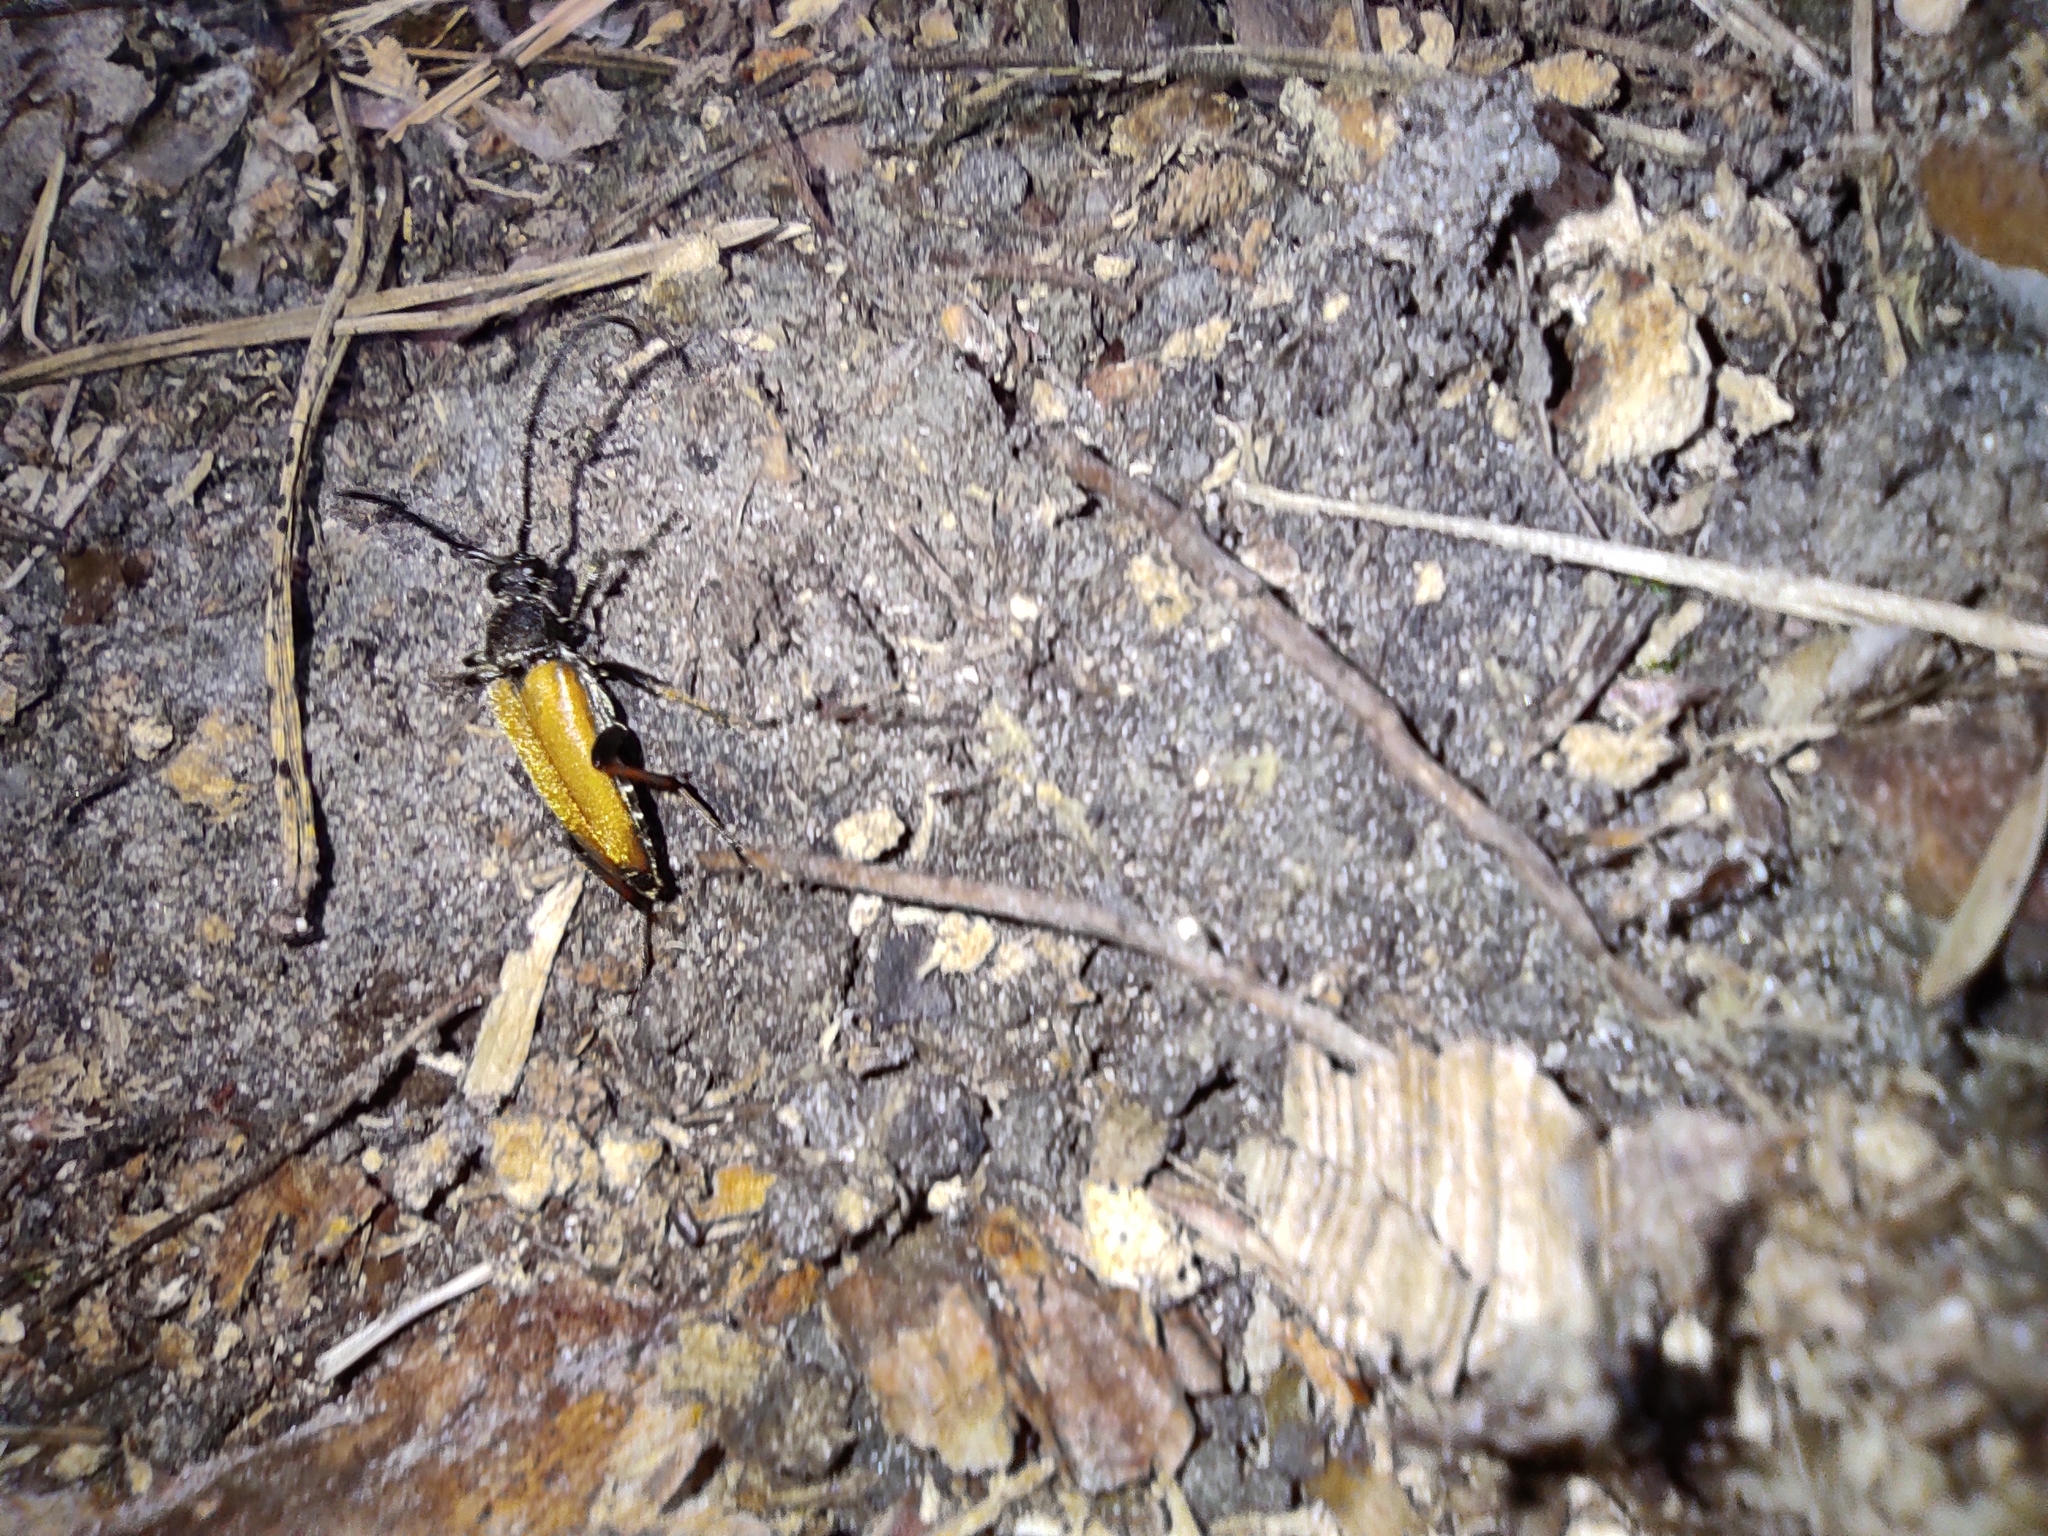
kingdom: Animalia
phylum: Arthropoda
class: Insecta
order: Coleoptera
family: Cerambycidae
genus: Stictoleptura
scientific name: Stictoleptura rubra
